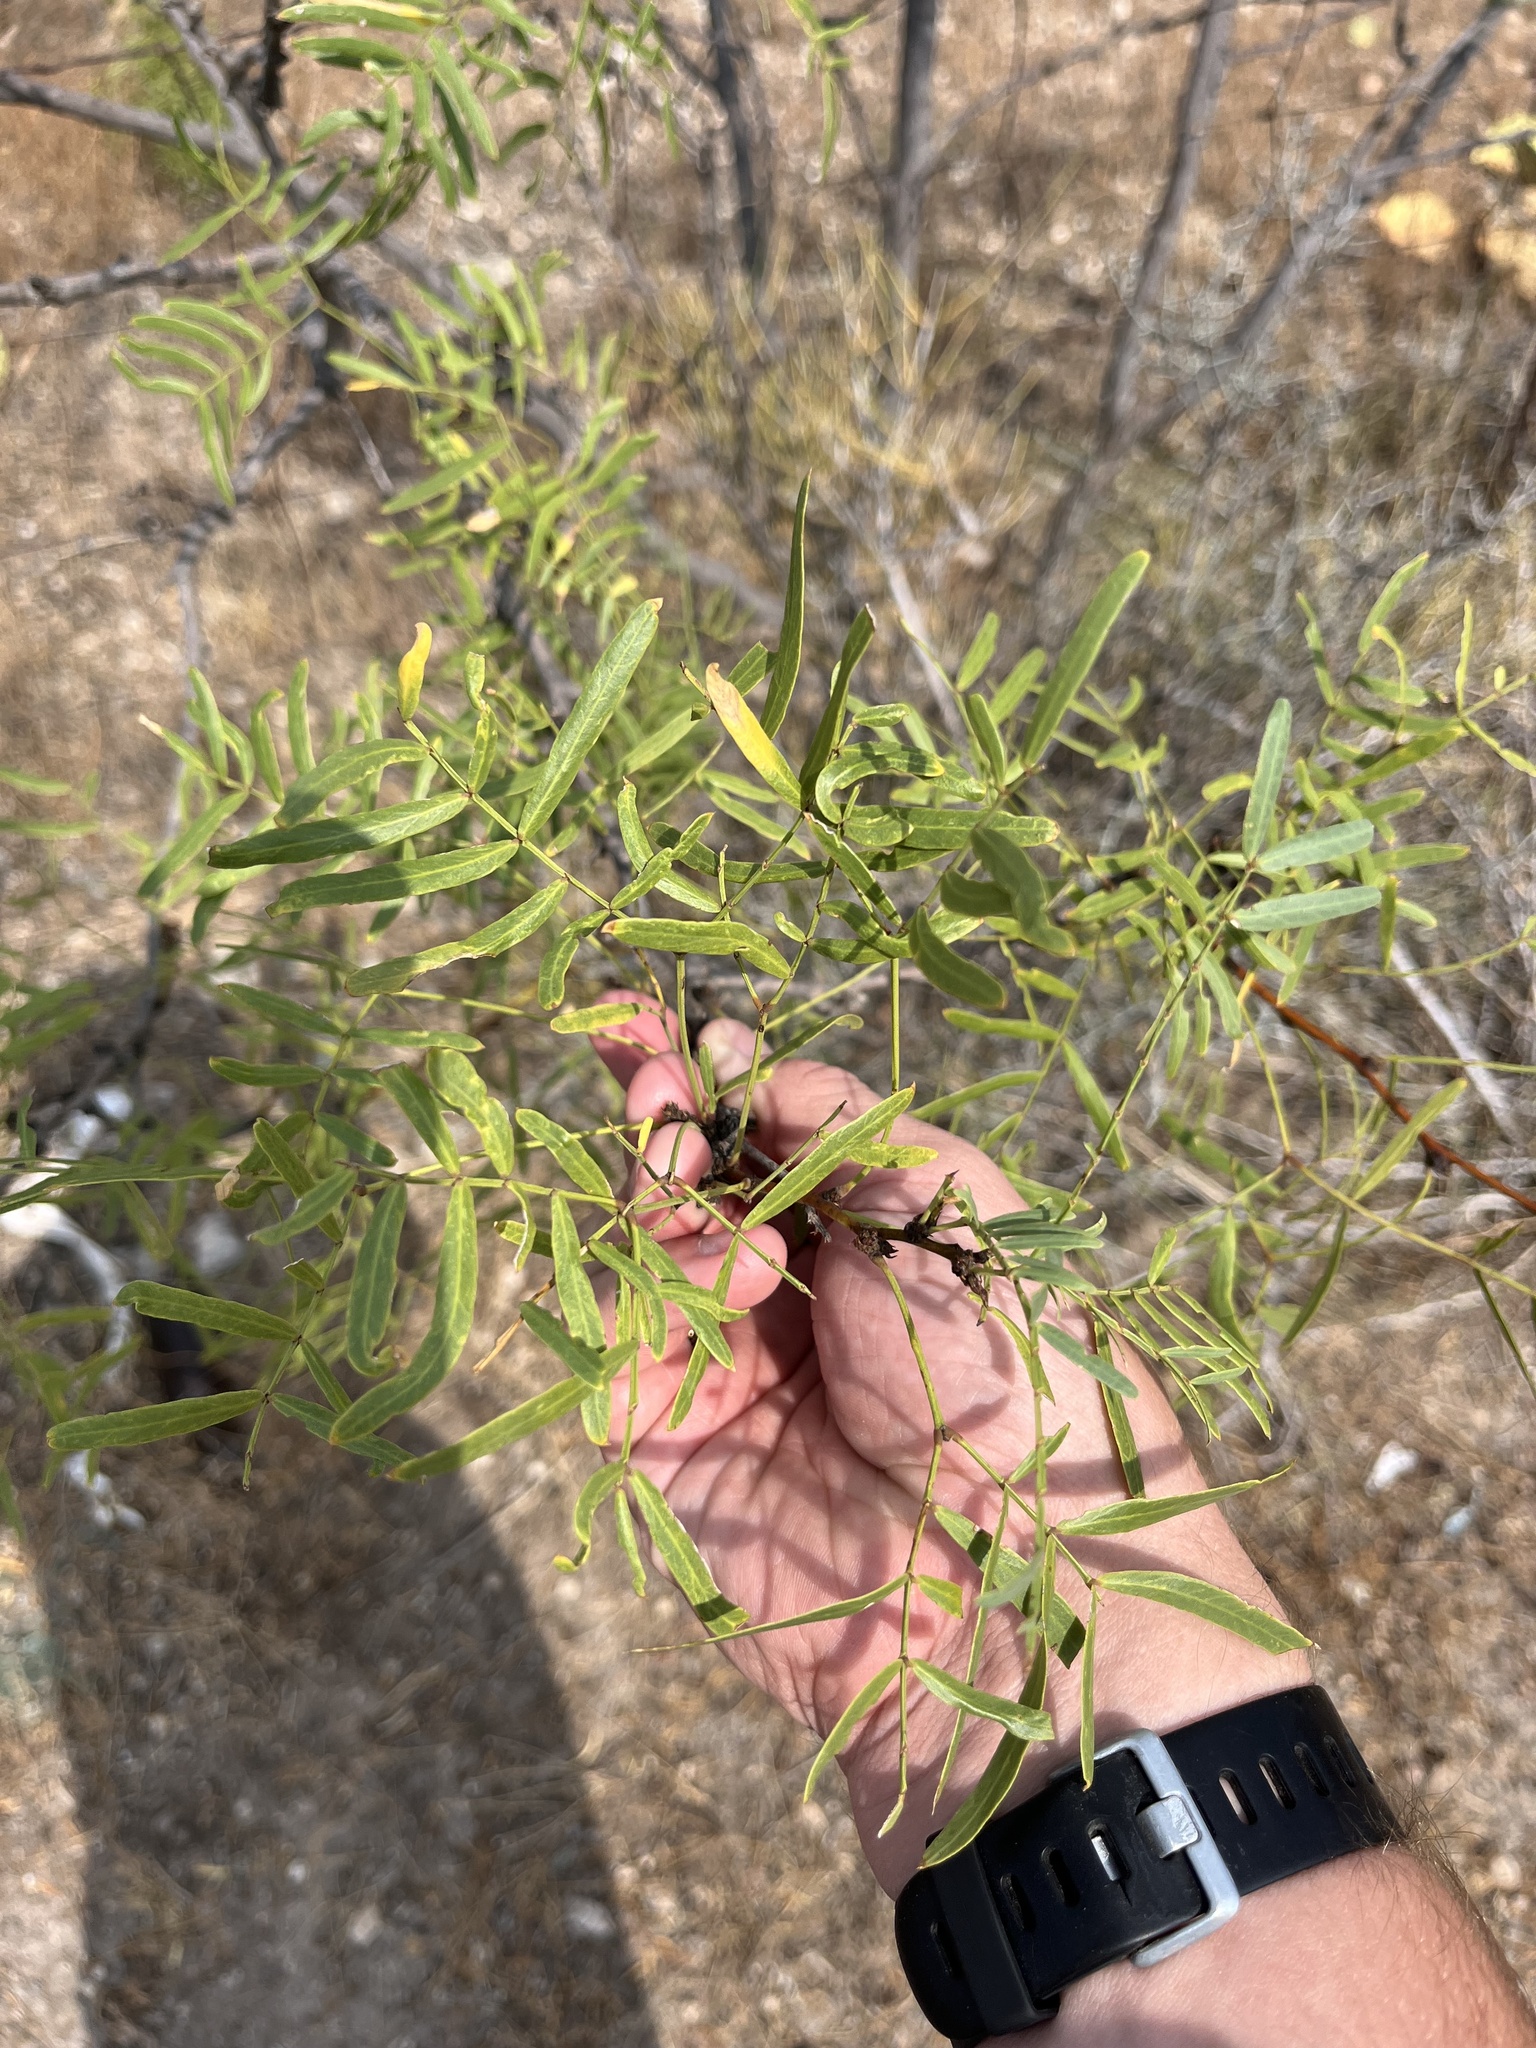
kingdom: Plantae
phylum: Tracheophyta
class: Magnoliopsida
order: Fabales
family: Fabaceae
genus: Prosopis
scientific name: Prosopis glandulosa
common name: Honey mesquite
